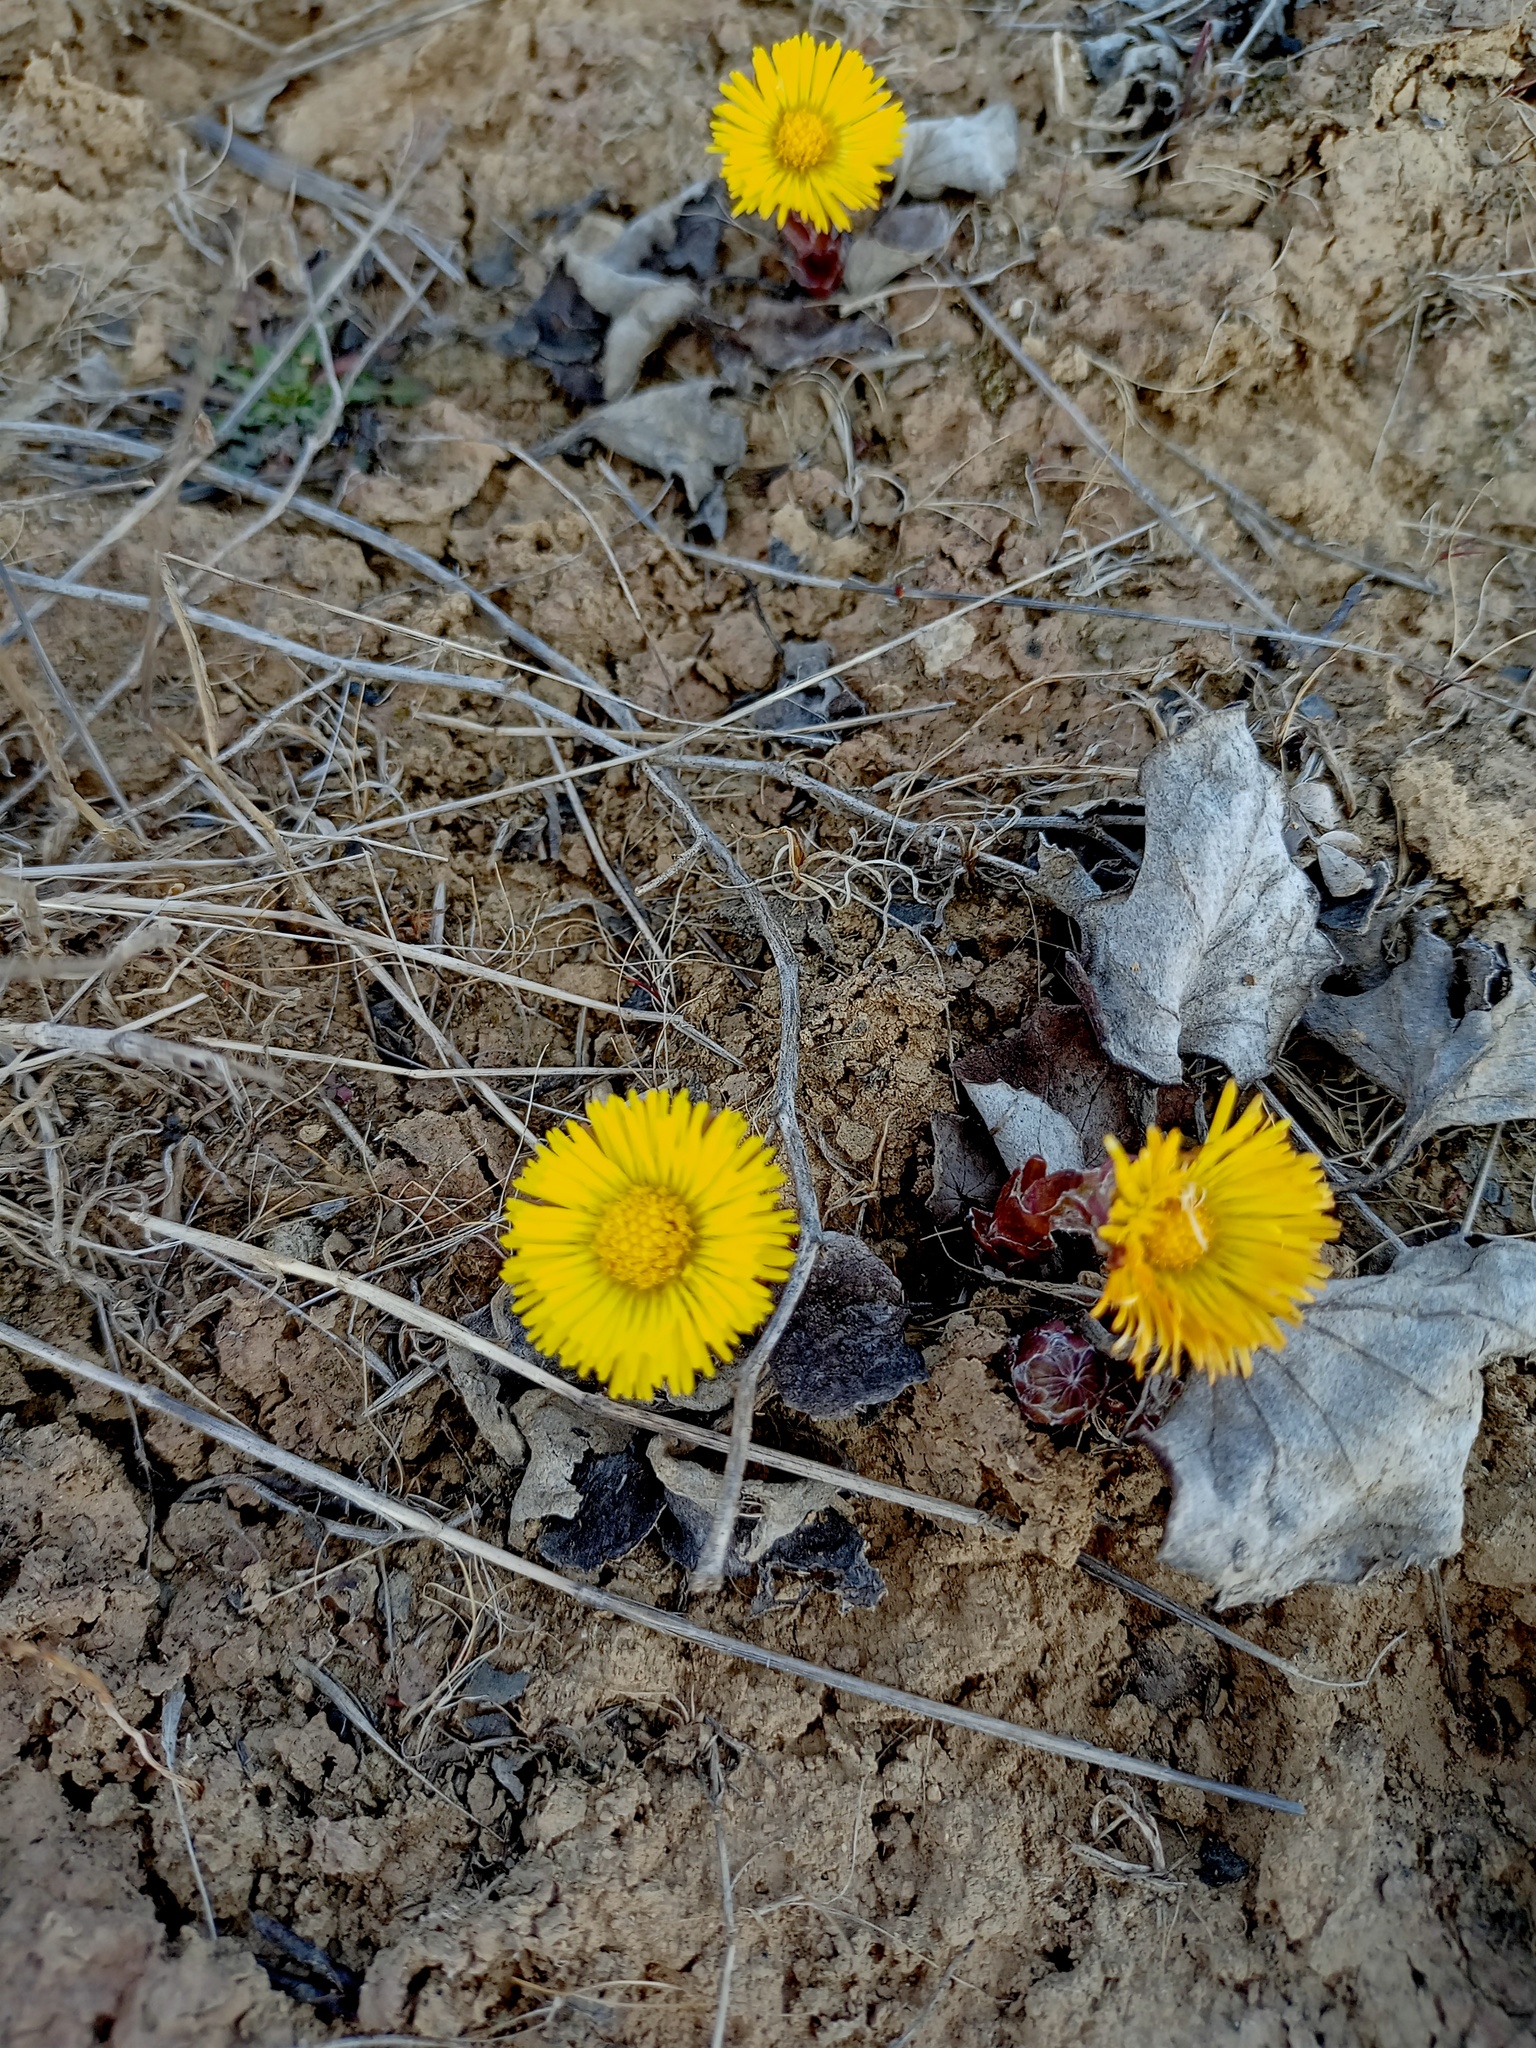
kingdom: Plantae
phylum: Tracheophyta
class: Magnoliopsida
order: Asterales
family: Asteraceae
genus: Tussilago
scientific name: Tussilago farfara
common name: Coltsfoot
